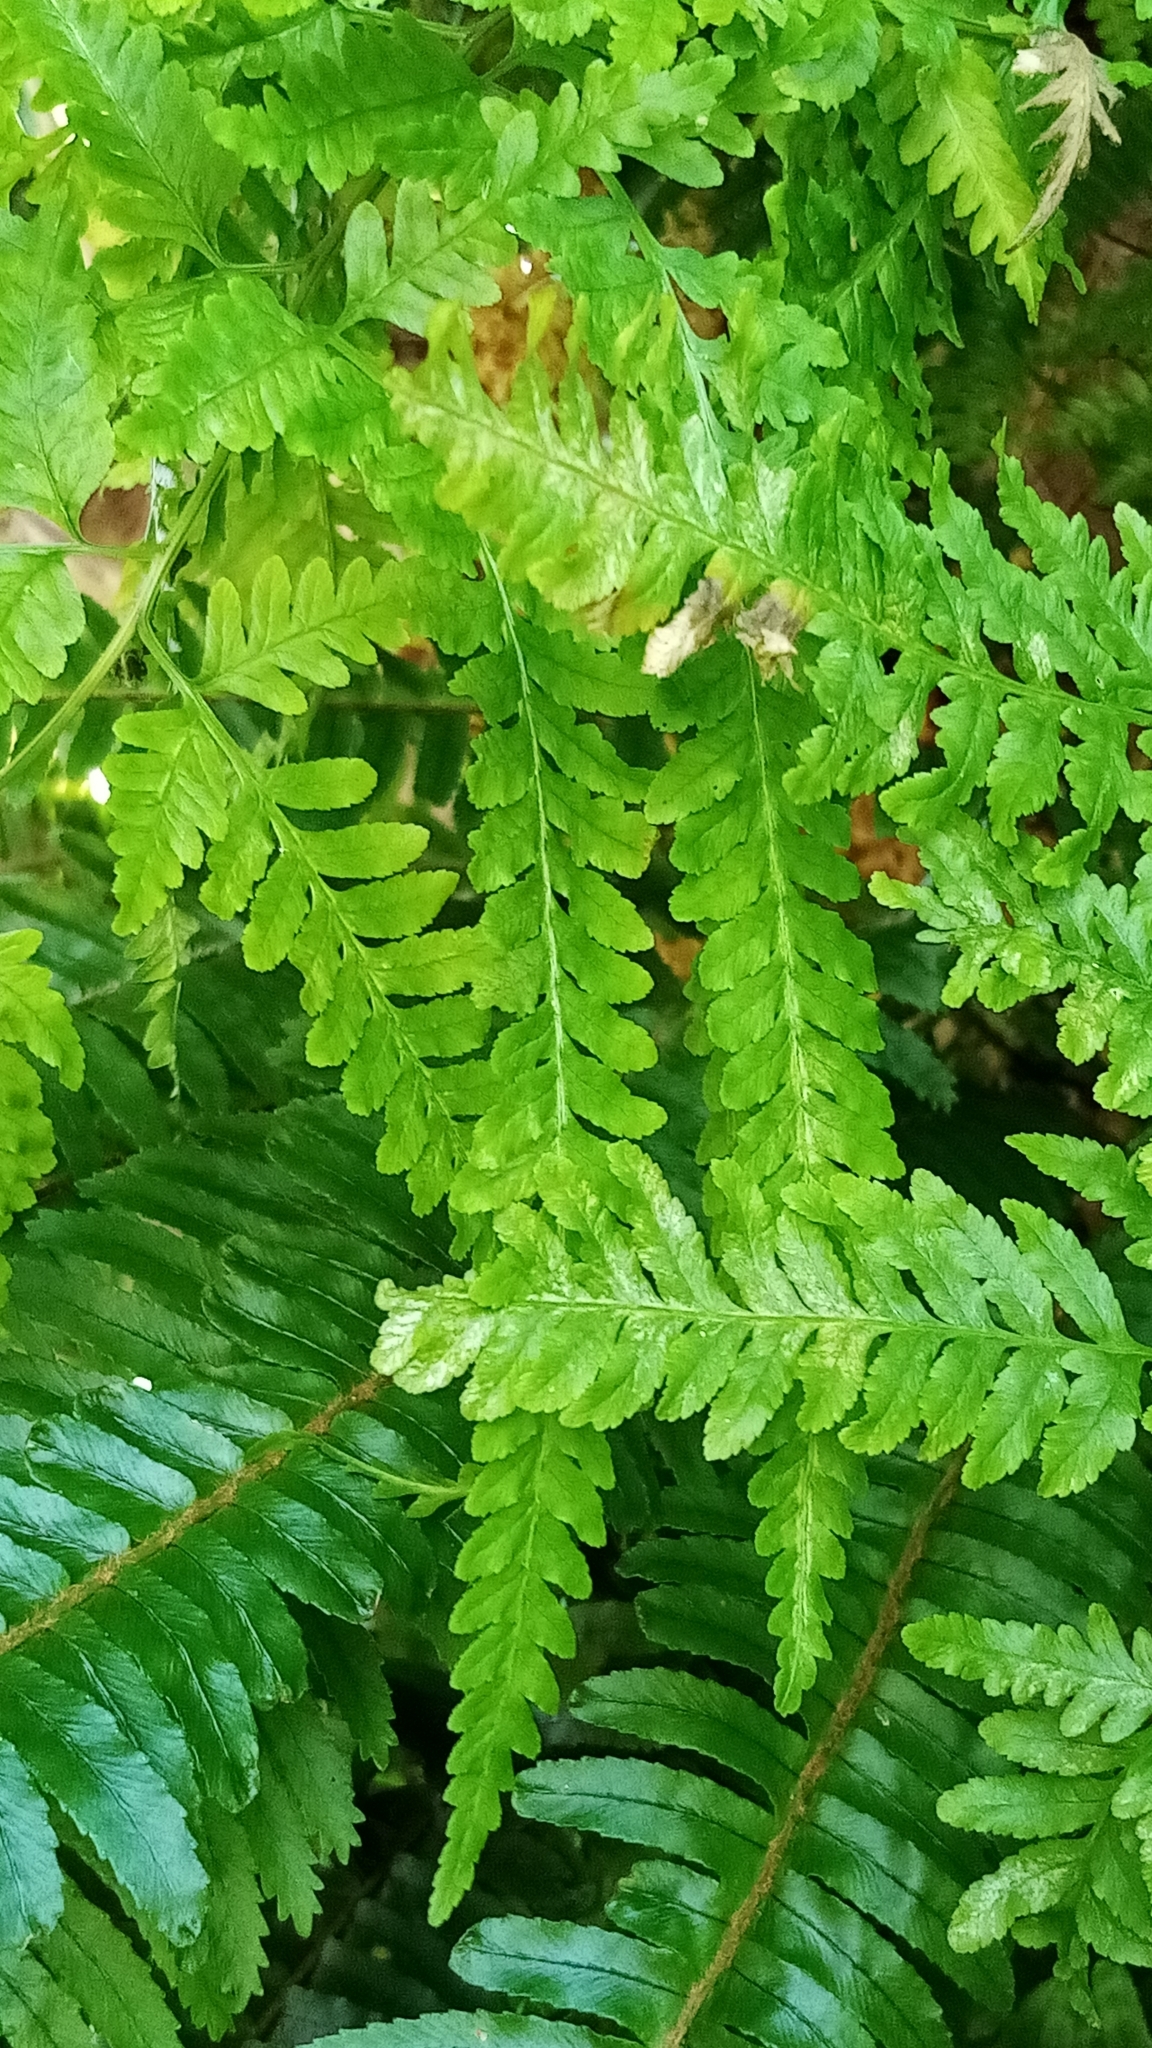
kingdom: Plantae
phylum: Tracheophyta
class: Polypodiopsida
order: Polypodiales
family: Pteridaceae
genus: Pteris
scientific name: Pteris tremula
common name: Australian brake
